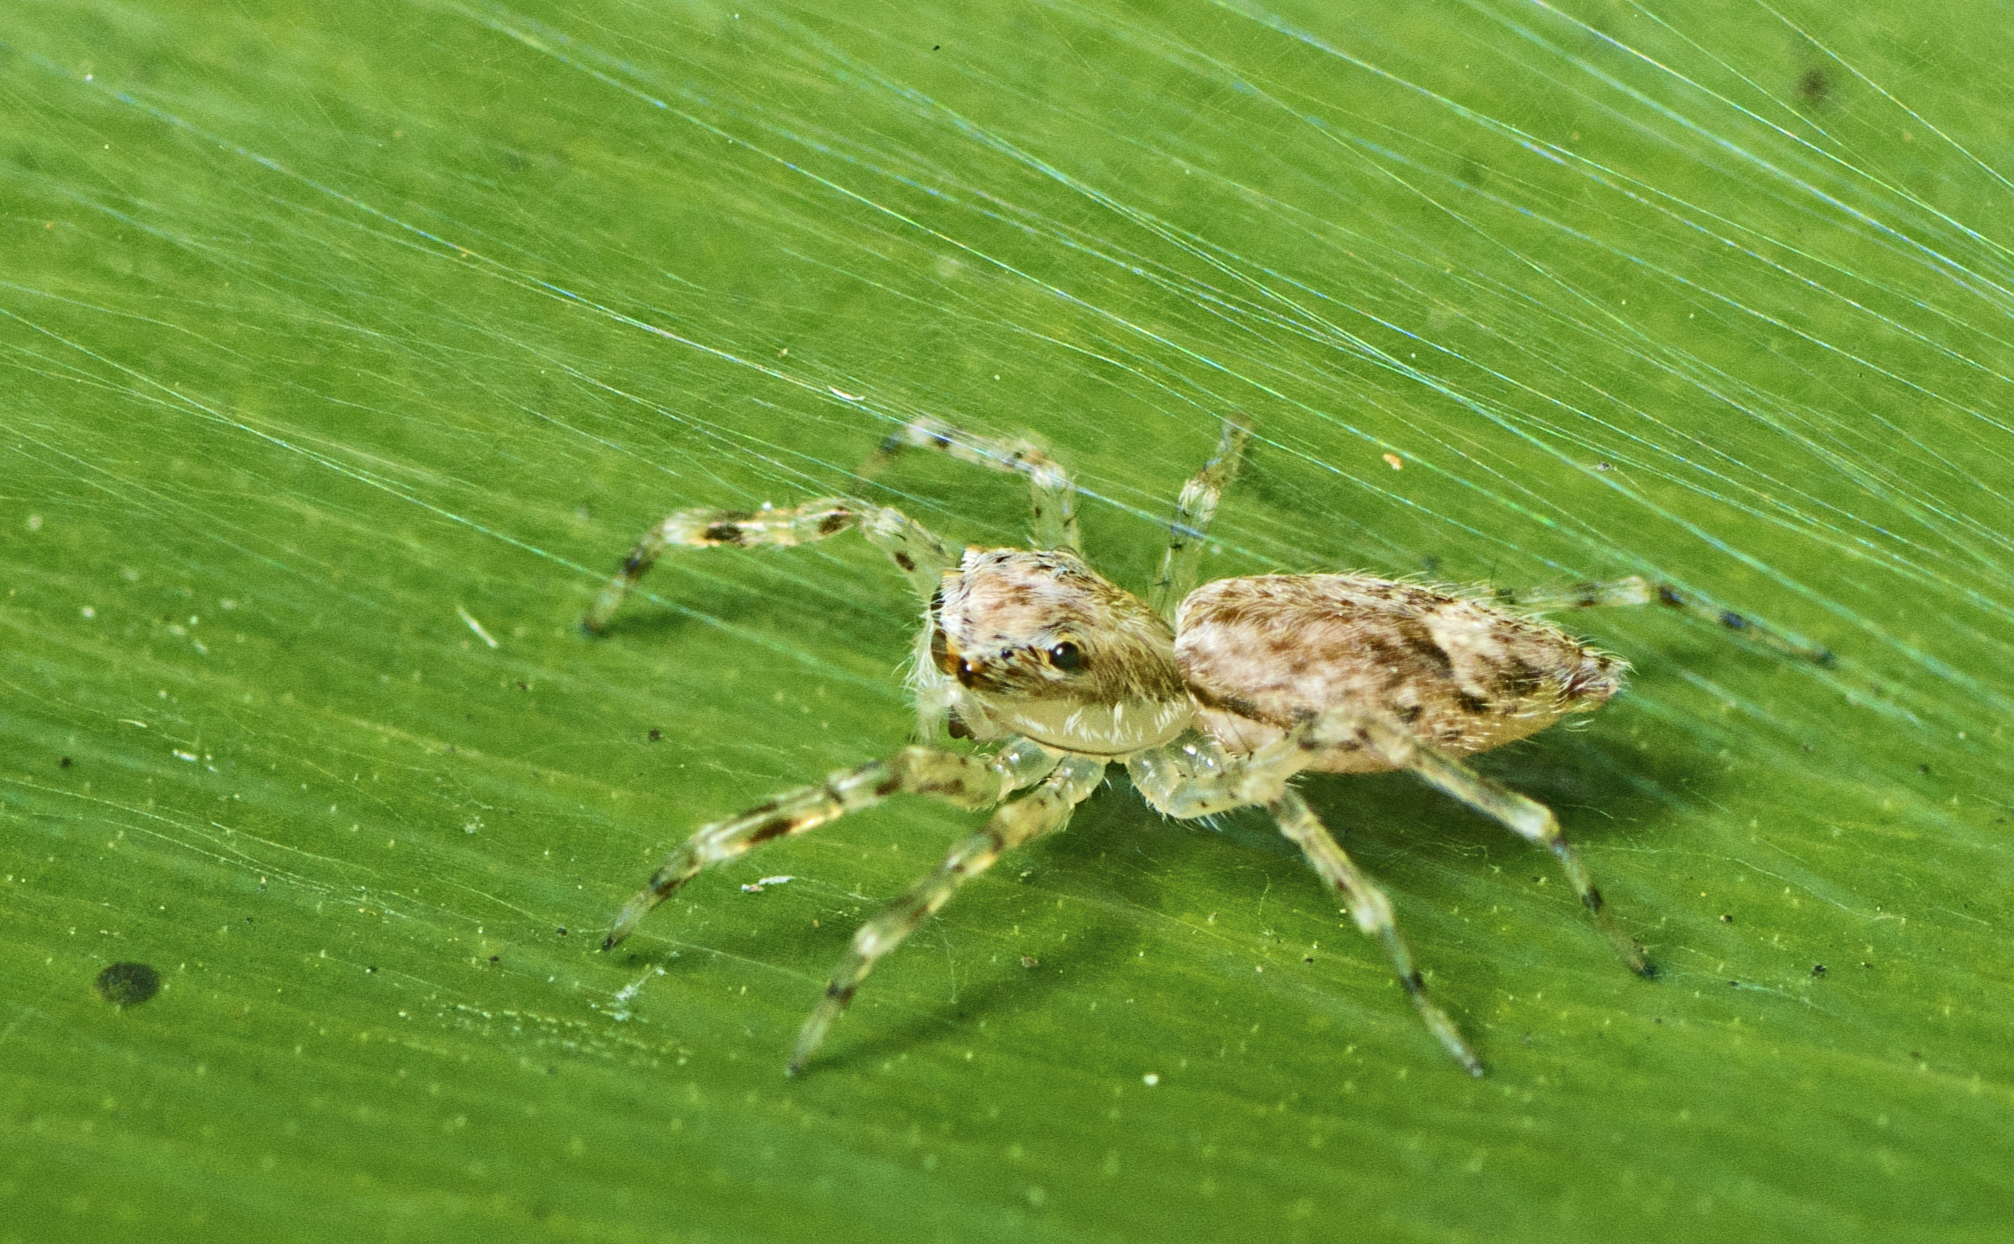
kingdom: Animalia
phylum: Arthropoda
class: Arachnida
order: Araneae
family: Salticidae
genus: Helpis
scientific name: Helpis minitabunda
